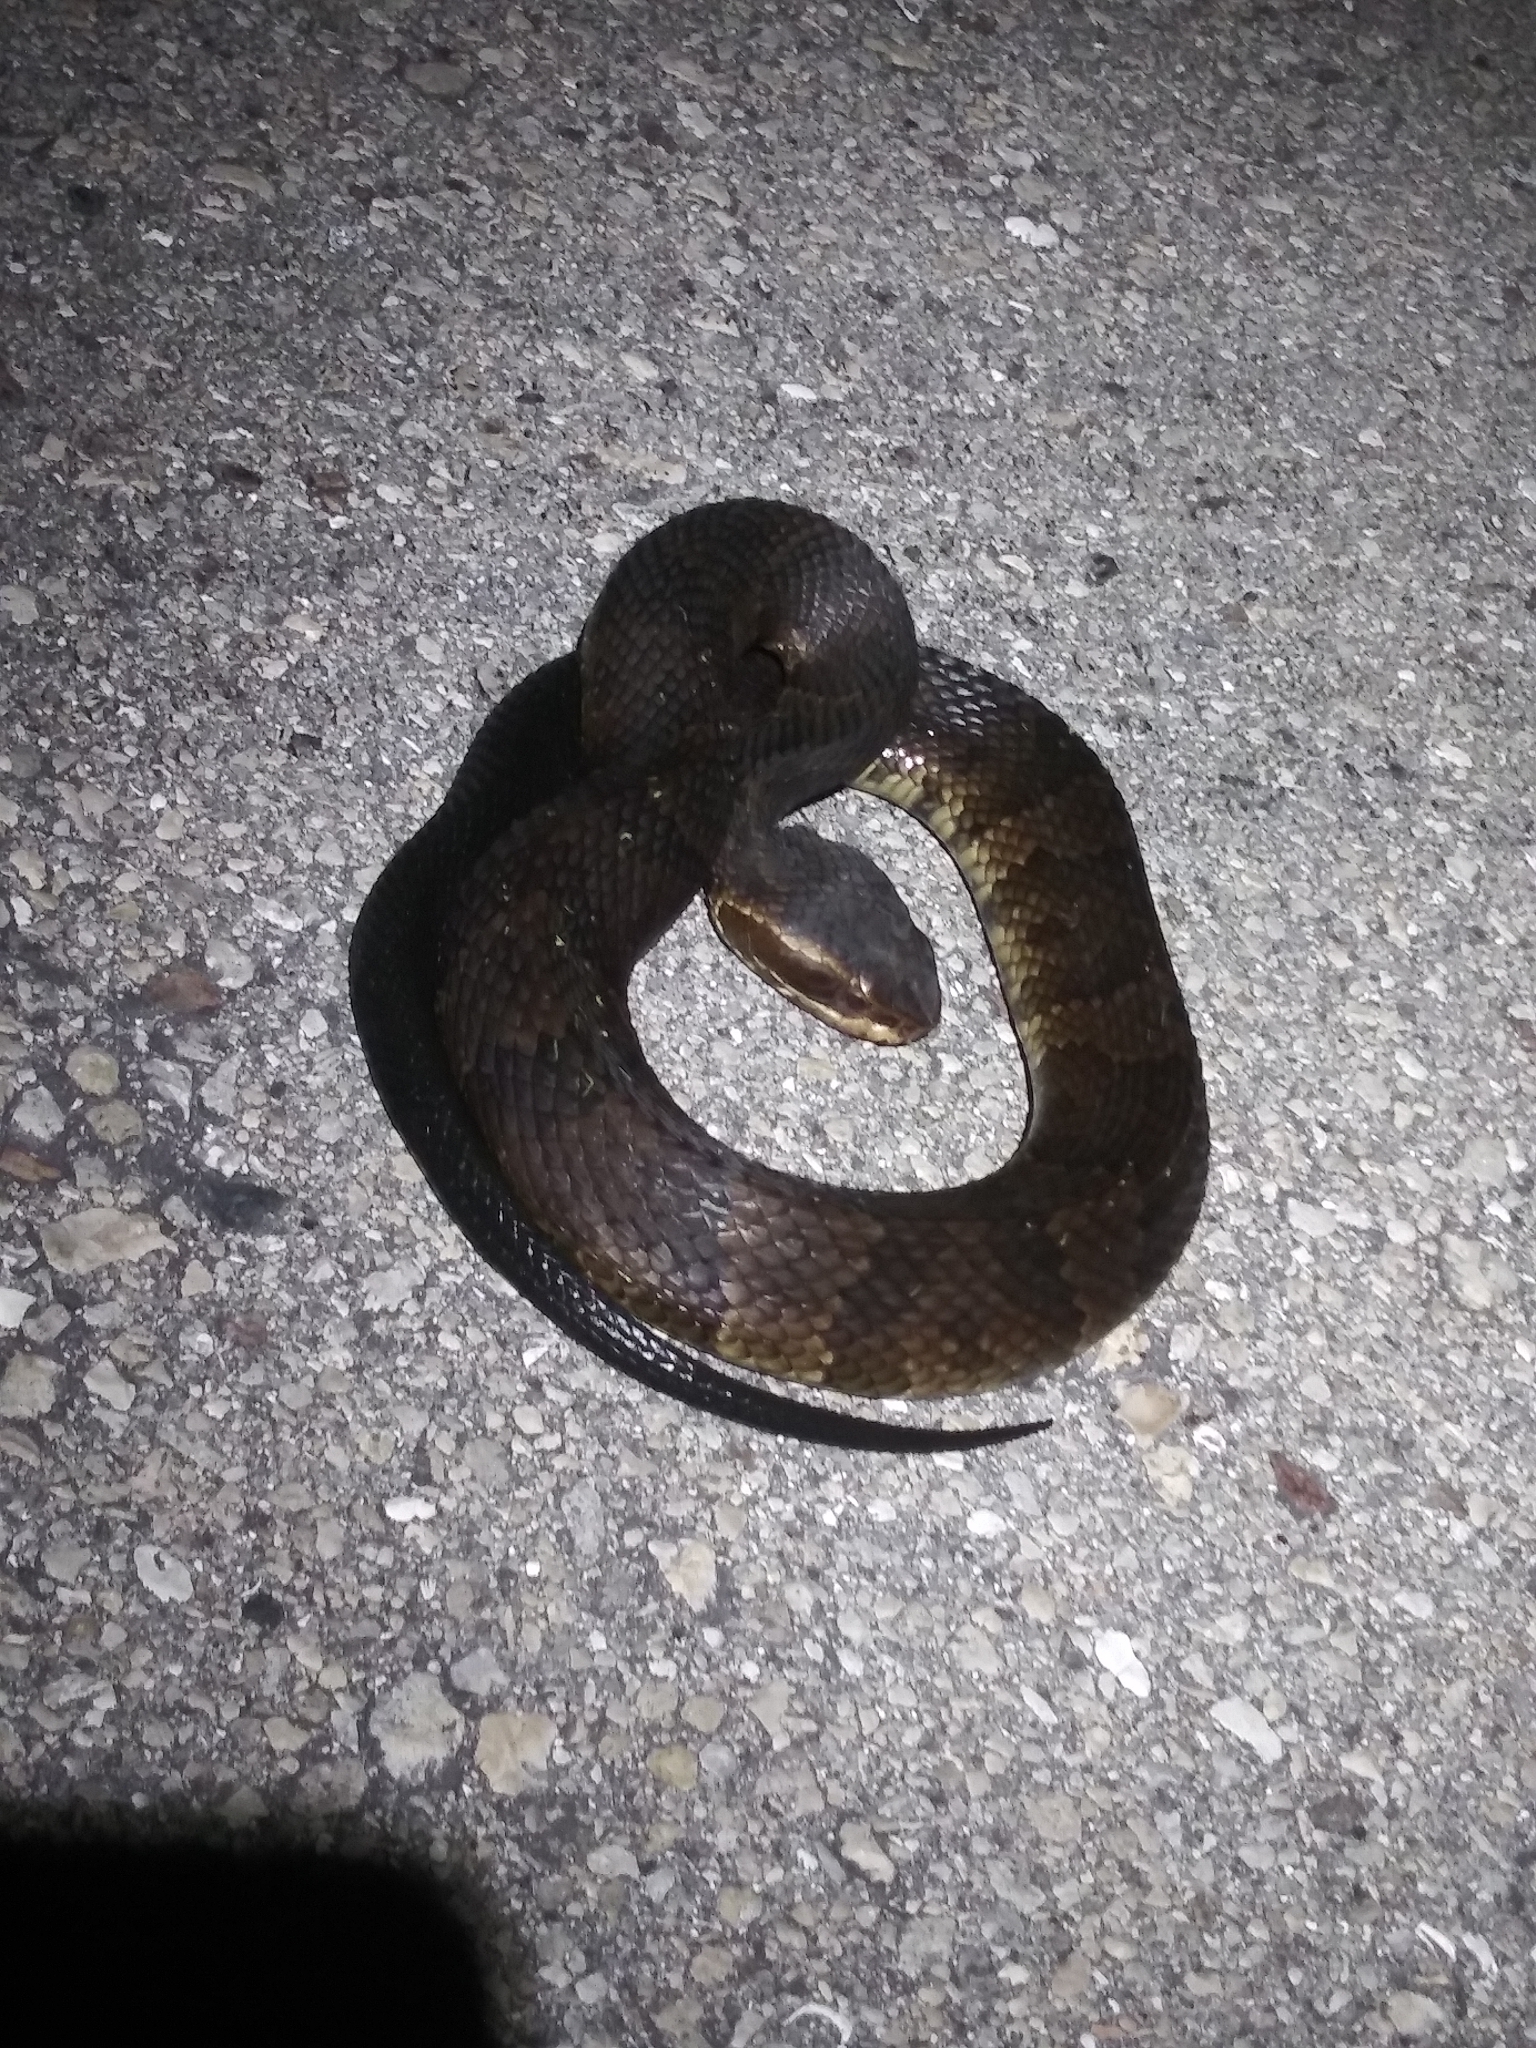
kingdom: Animalia
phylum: Chordata
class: Squamata
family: Viperidae
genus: Agkistrodon
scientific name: Agkistrodon conanti
